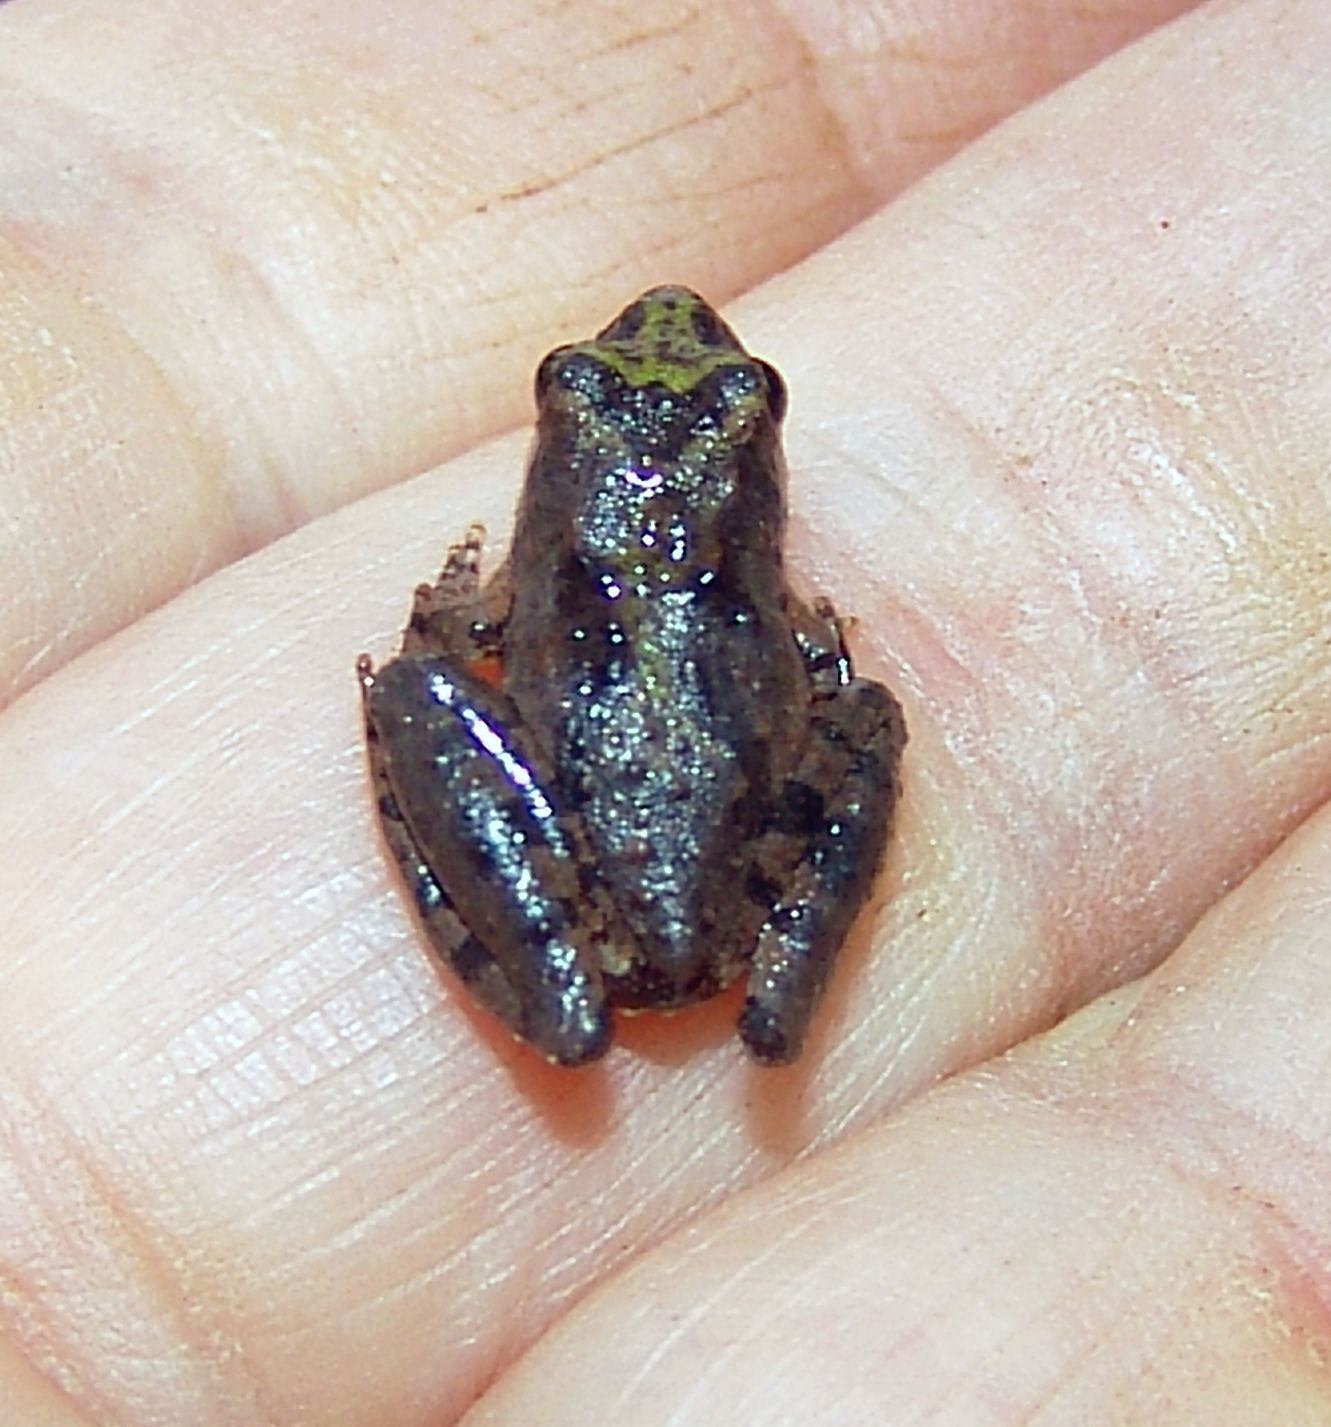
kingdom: Animalia
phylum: Chordata
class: Amphibia
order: Anura
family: Hylidae
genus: Acris
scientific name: Acris blanchardi
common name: Blanchard's cricket frog
